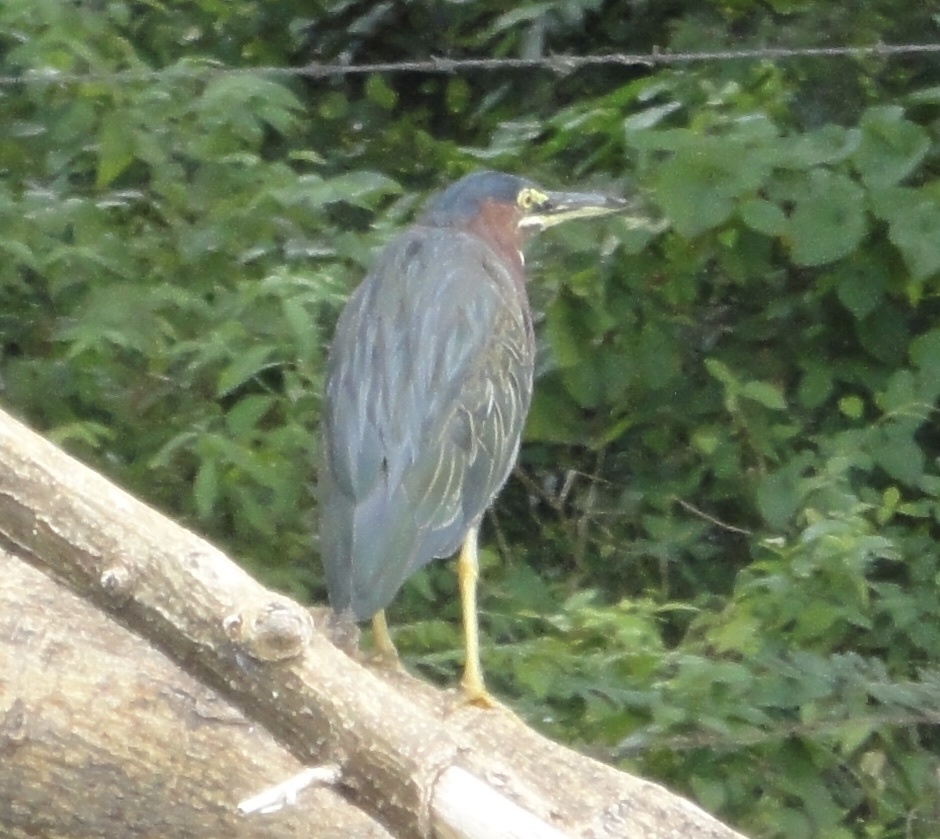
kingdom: Animalia
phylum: Chordata
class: Aves
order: Pelecaniformes
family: Ardeidae
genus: Butorides
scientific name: Butorides virescens
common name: Green heron
